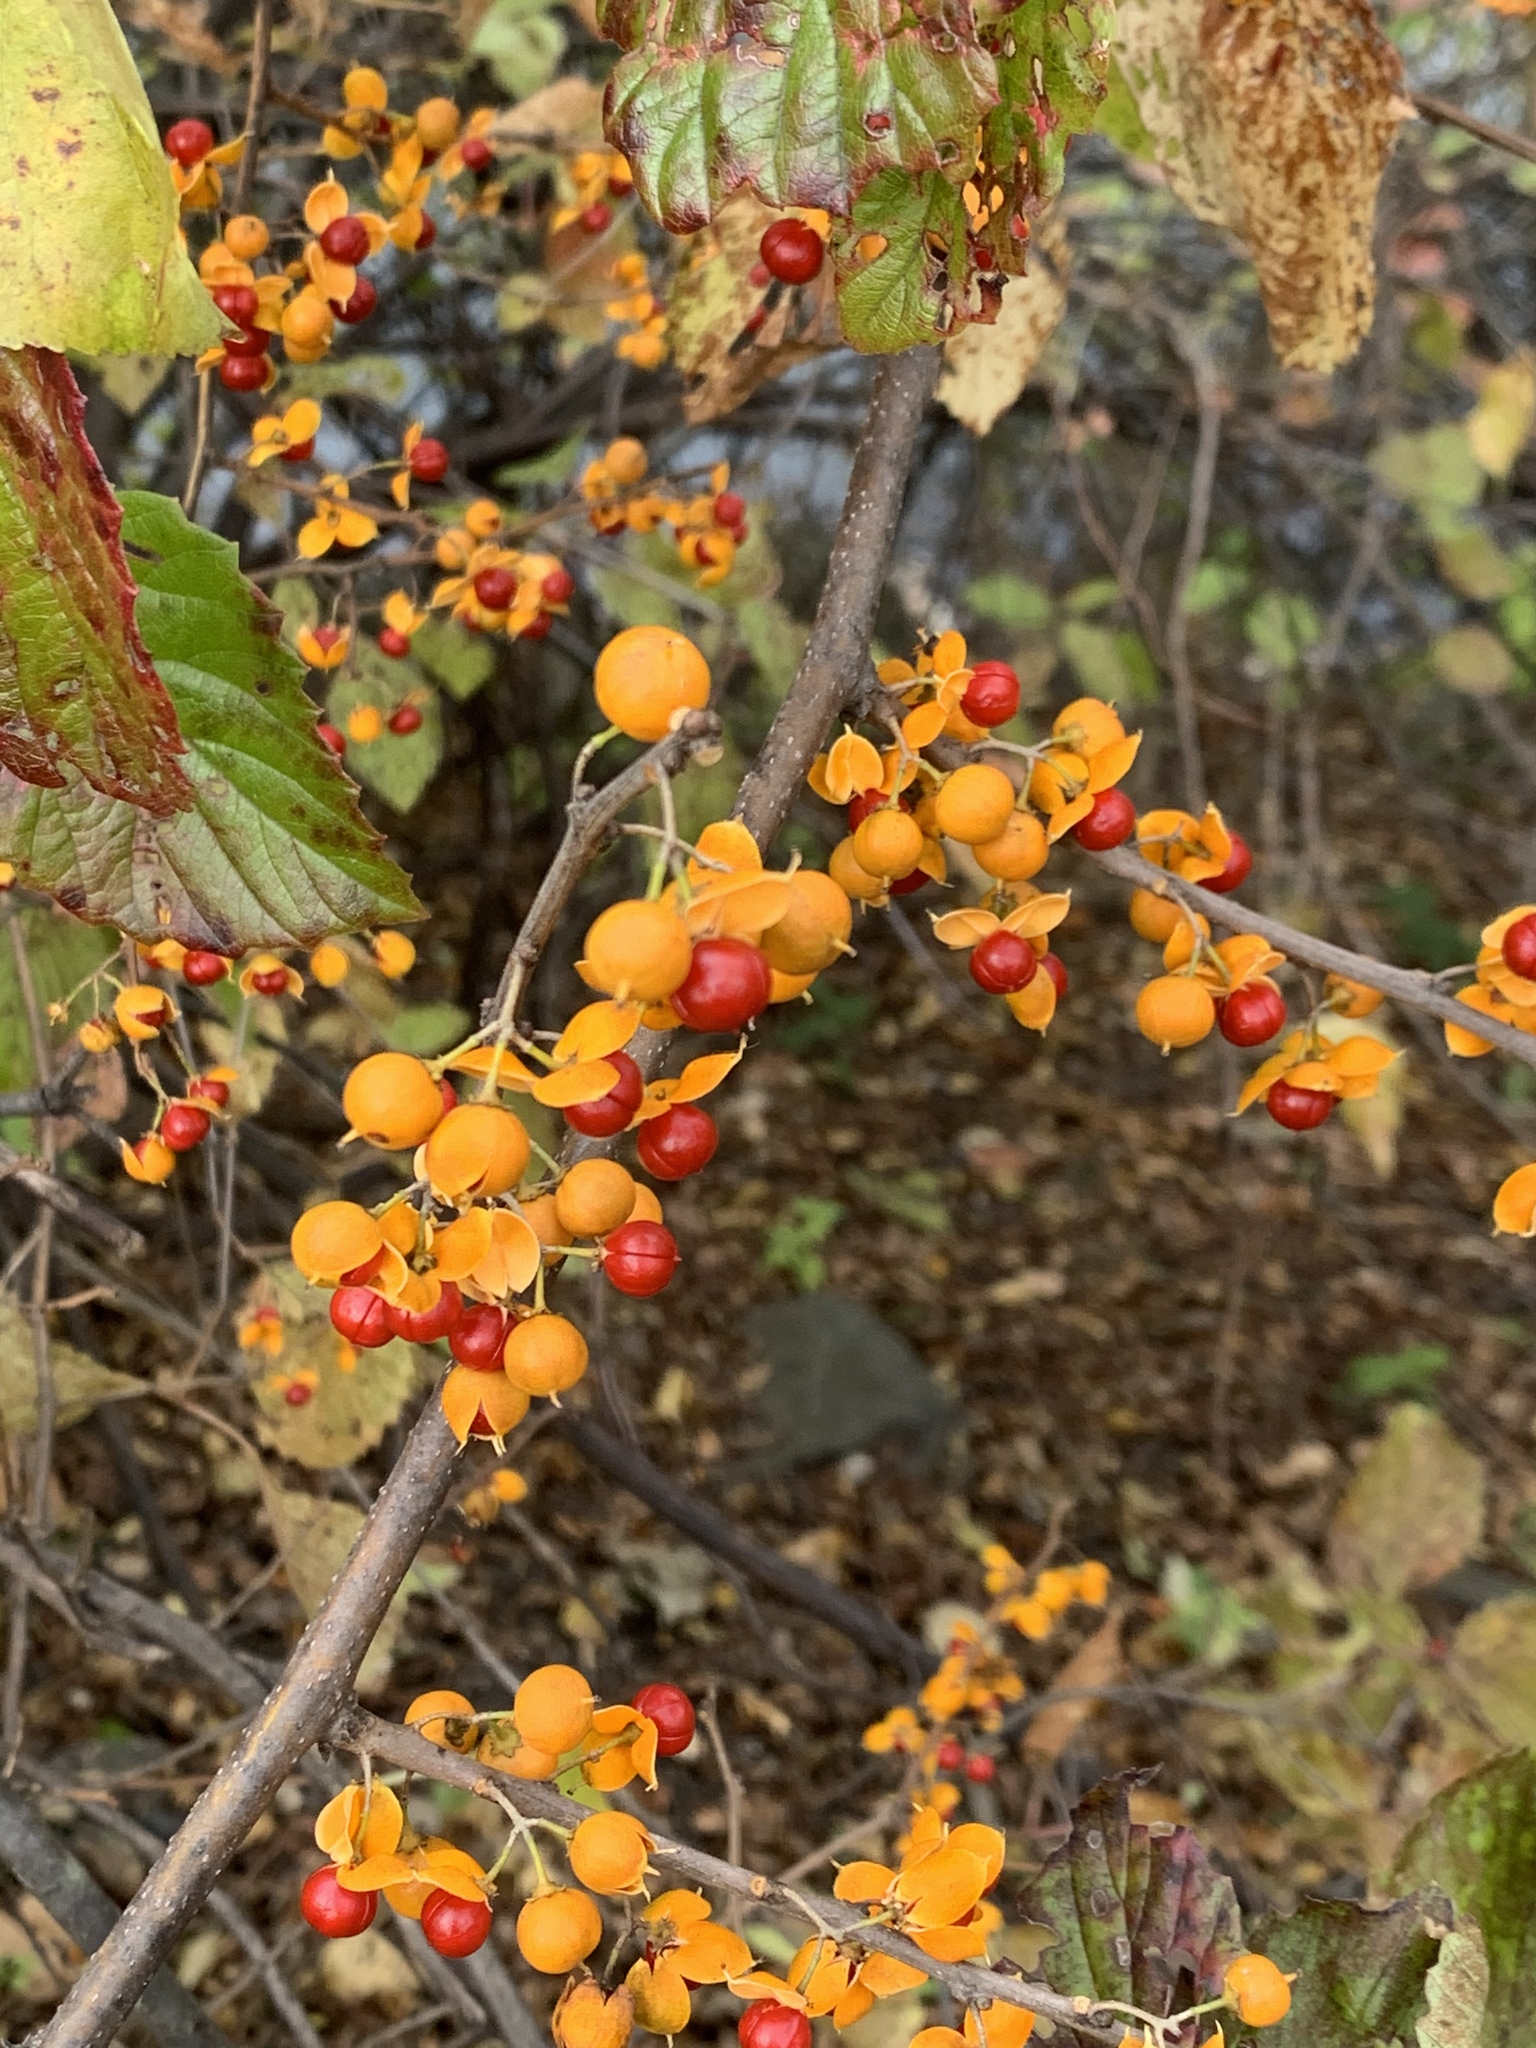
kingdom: Plantae
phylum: Tracheophyta
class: Magnoliopsida
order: Celastrales
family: Celastraceae
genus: Celastrus
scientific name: Celastrus orbiculatus
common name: Oriental bittersweet
